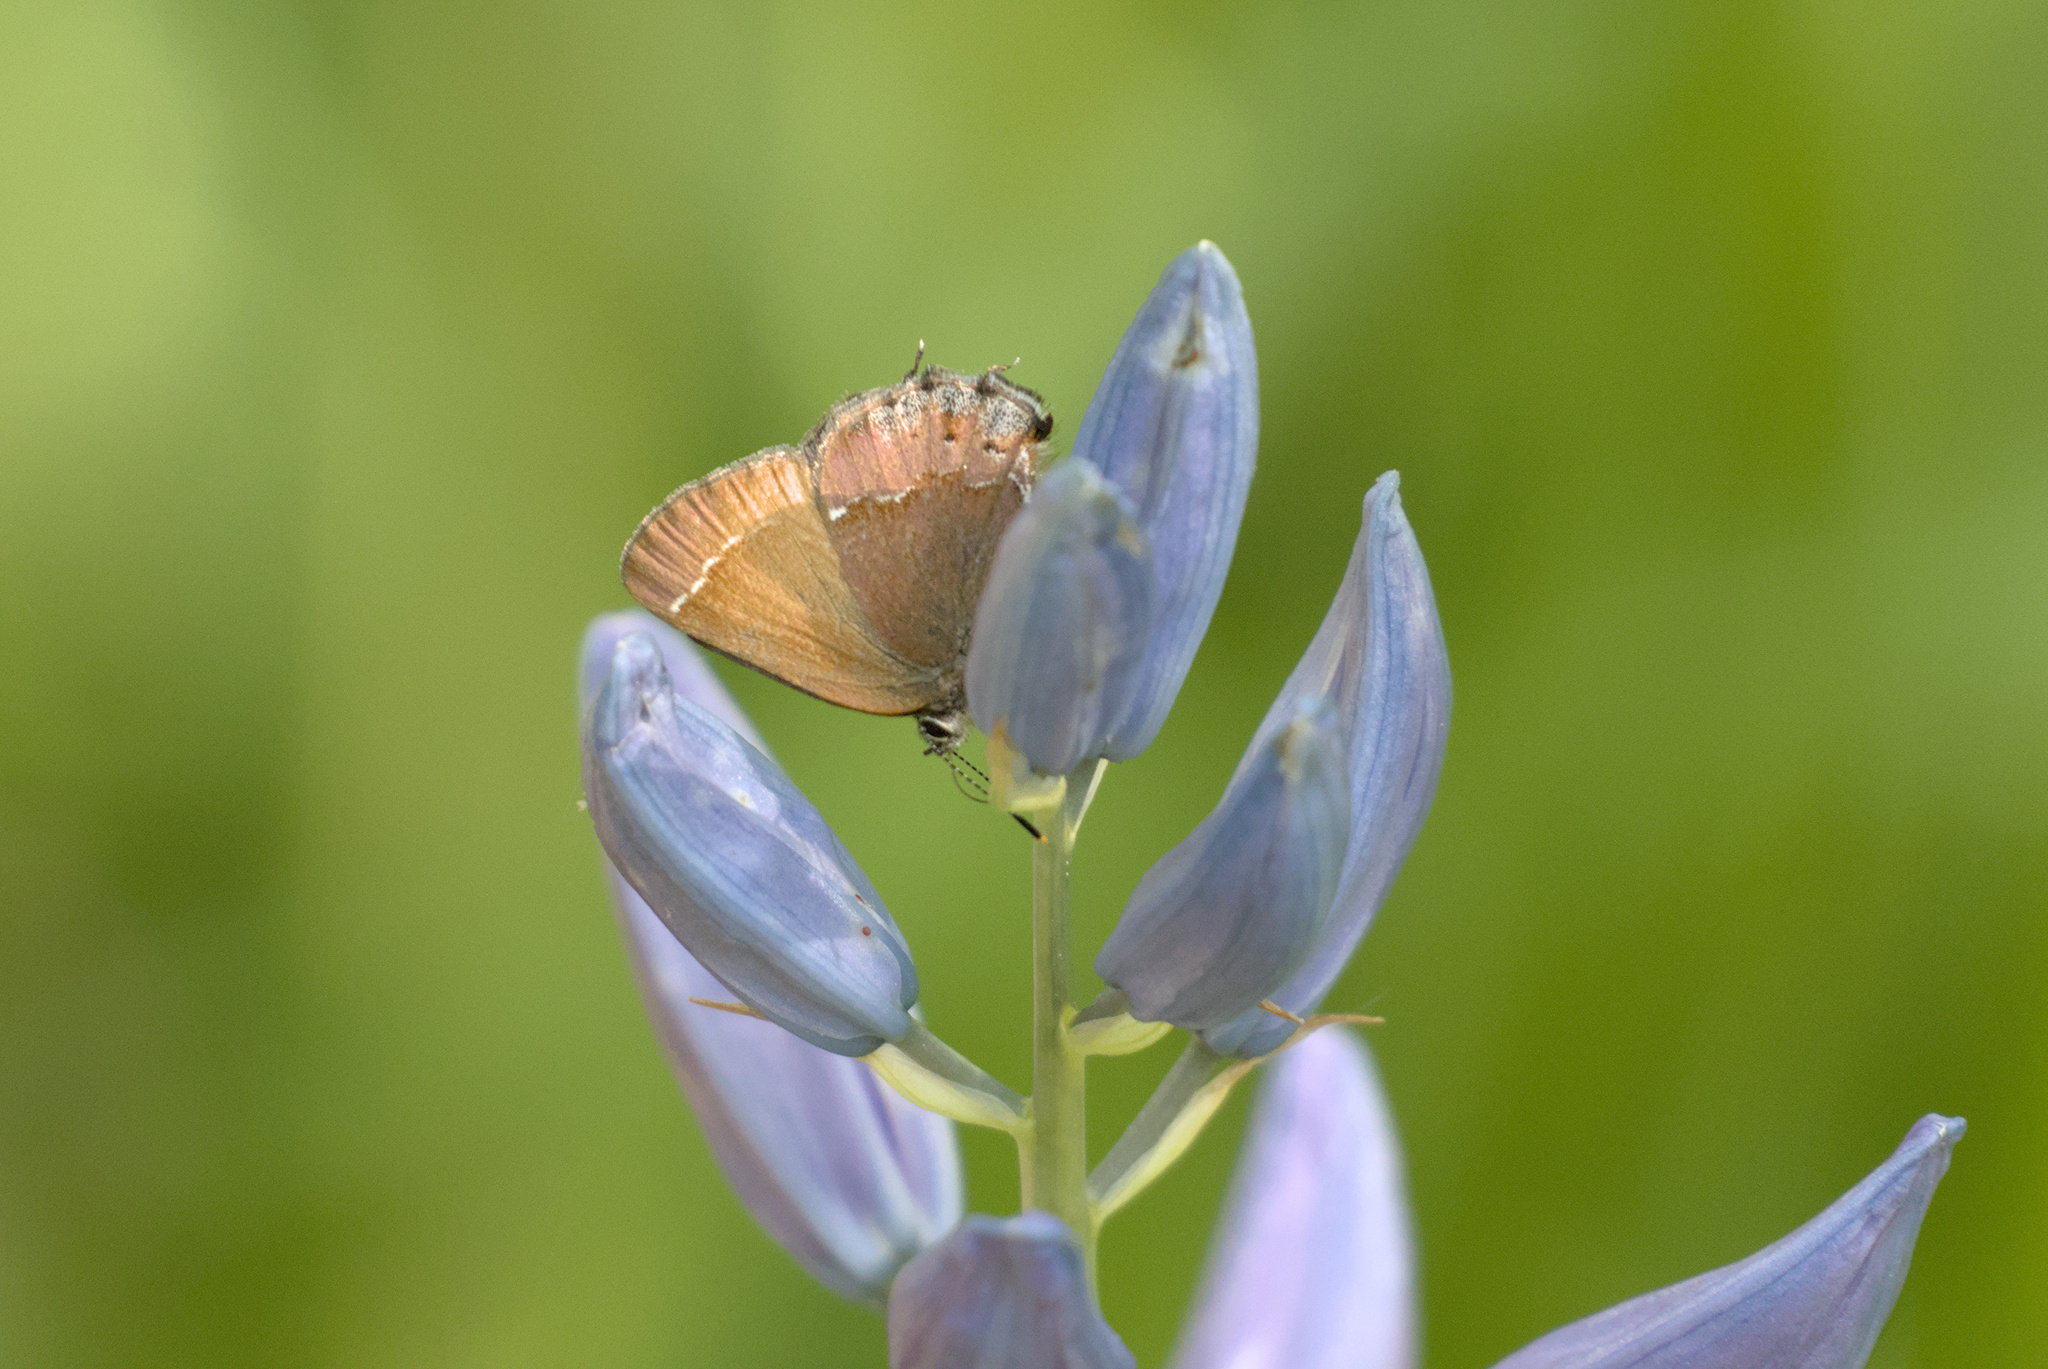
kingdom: Animalia
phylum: Arthropoda
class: Insecta
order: Lepidoptera
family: Lycaenidae
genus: Mitoura
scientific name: Mitoura gryneus
